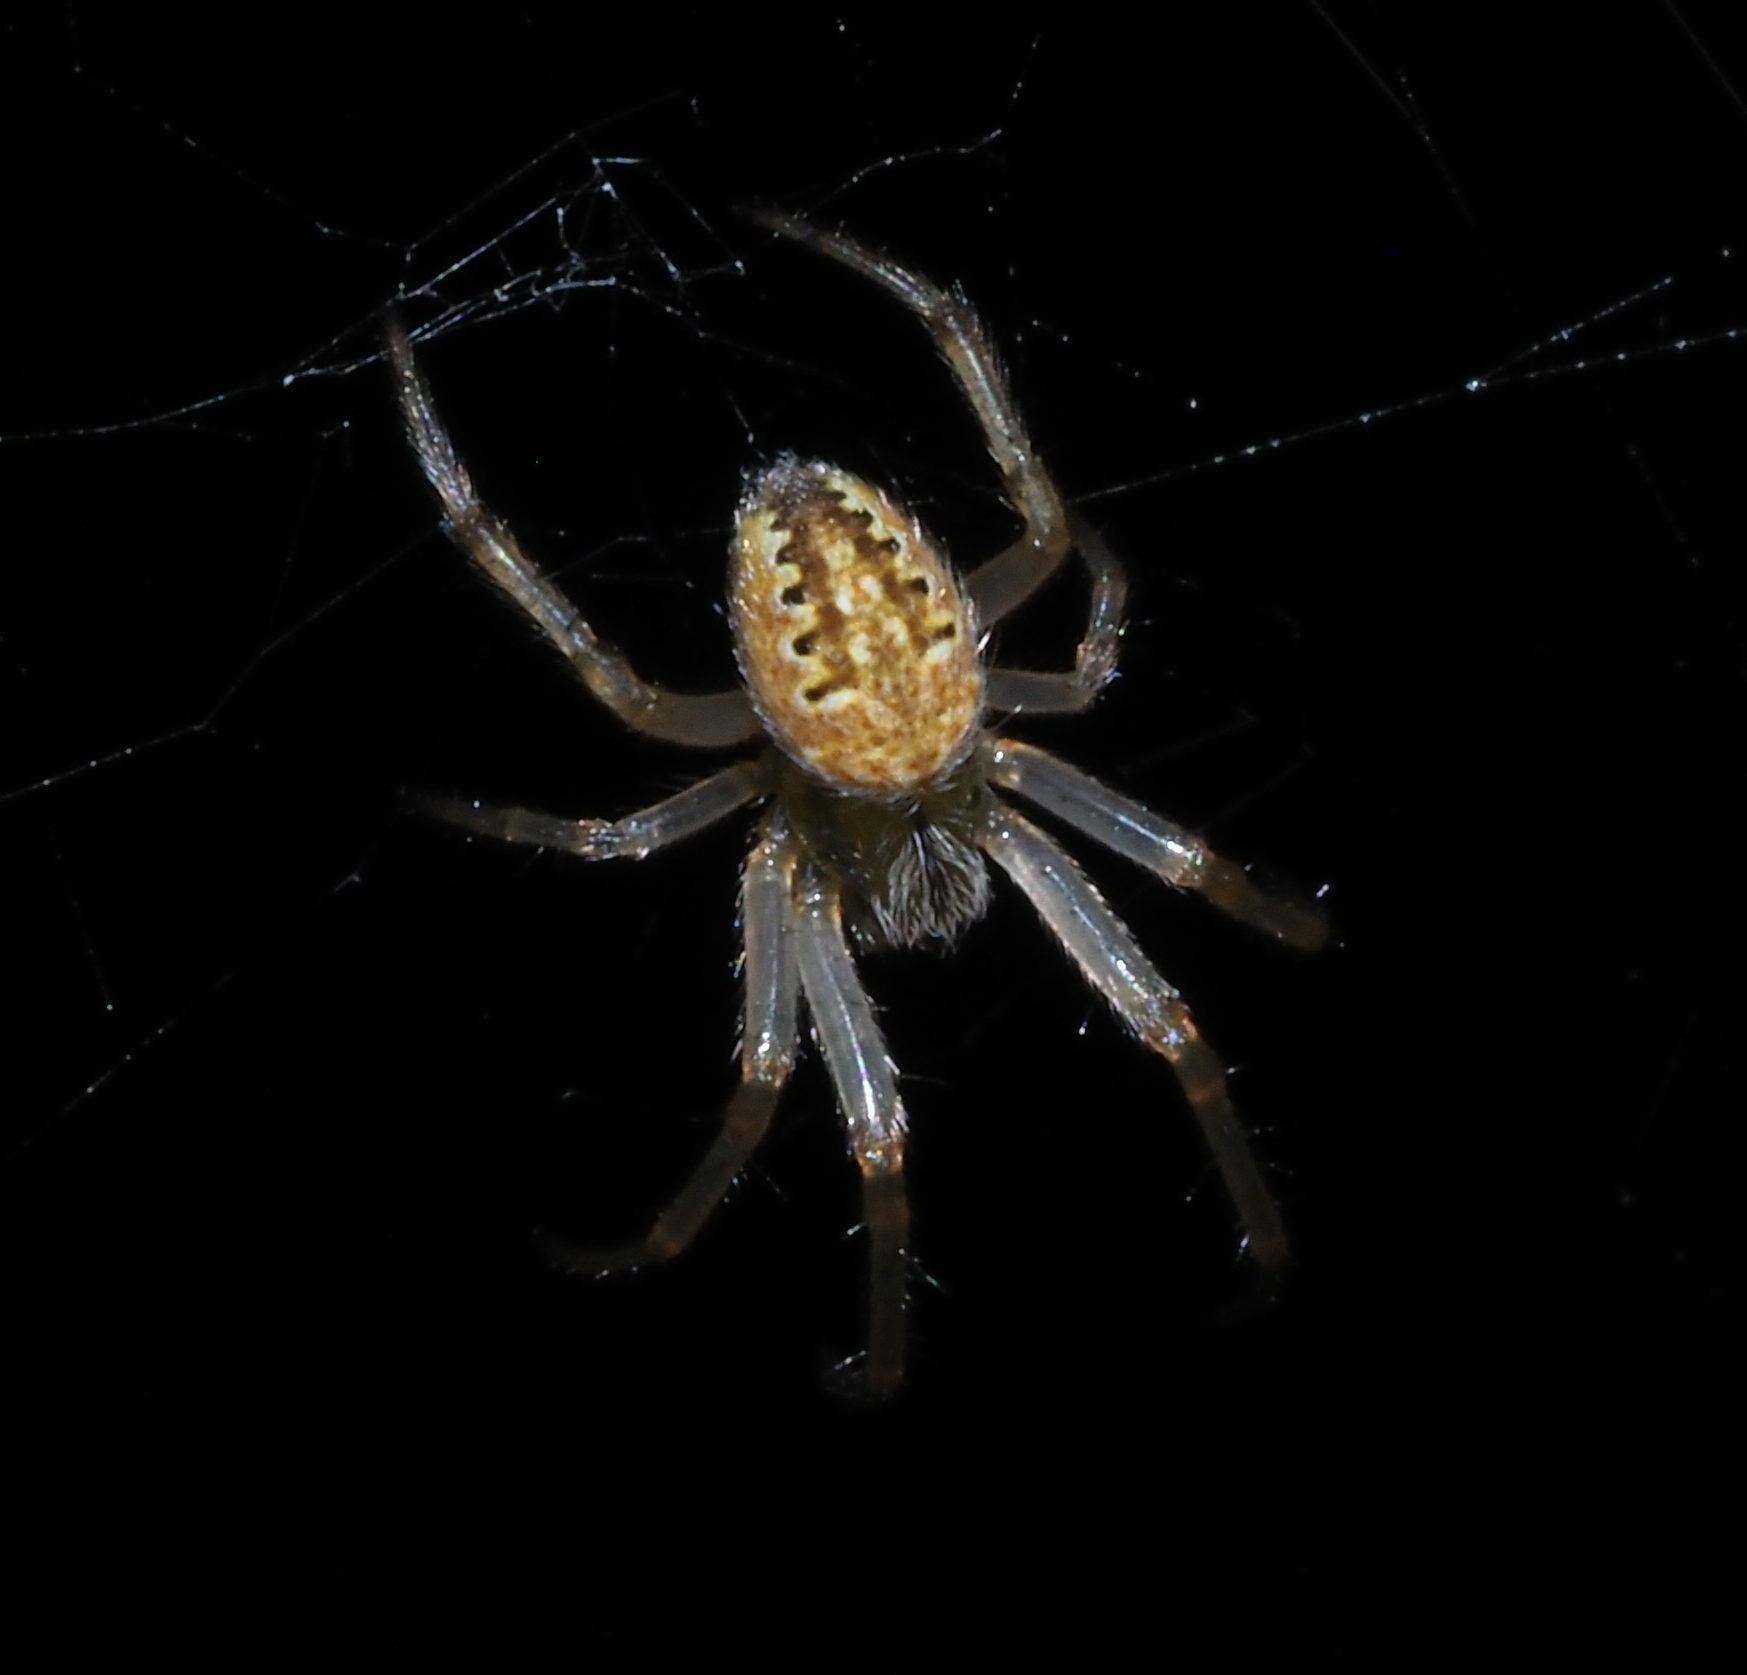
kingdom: Animalia
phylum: Arthropoda
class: Arachnida
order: Araneae
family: Araneidae
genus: Neoscona
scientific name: Neoscona theisi
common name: Spider
